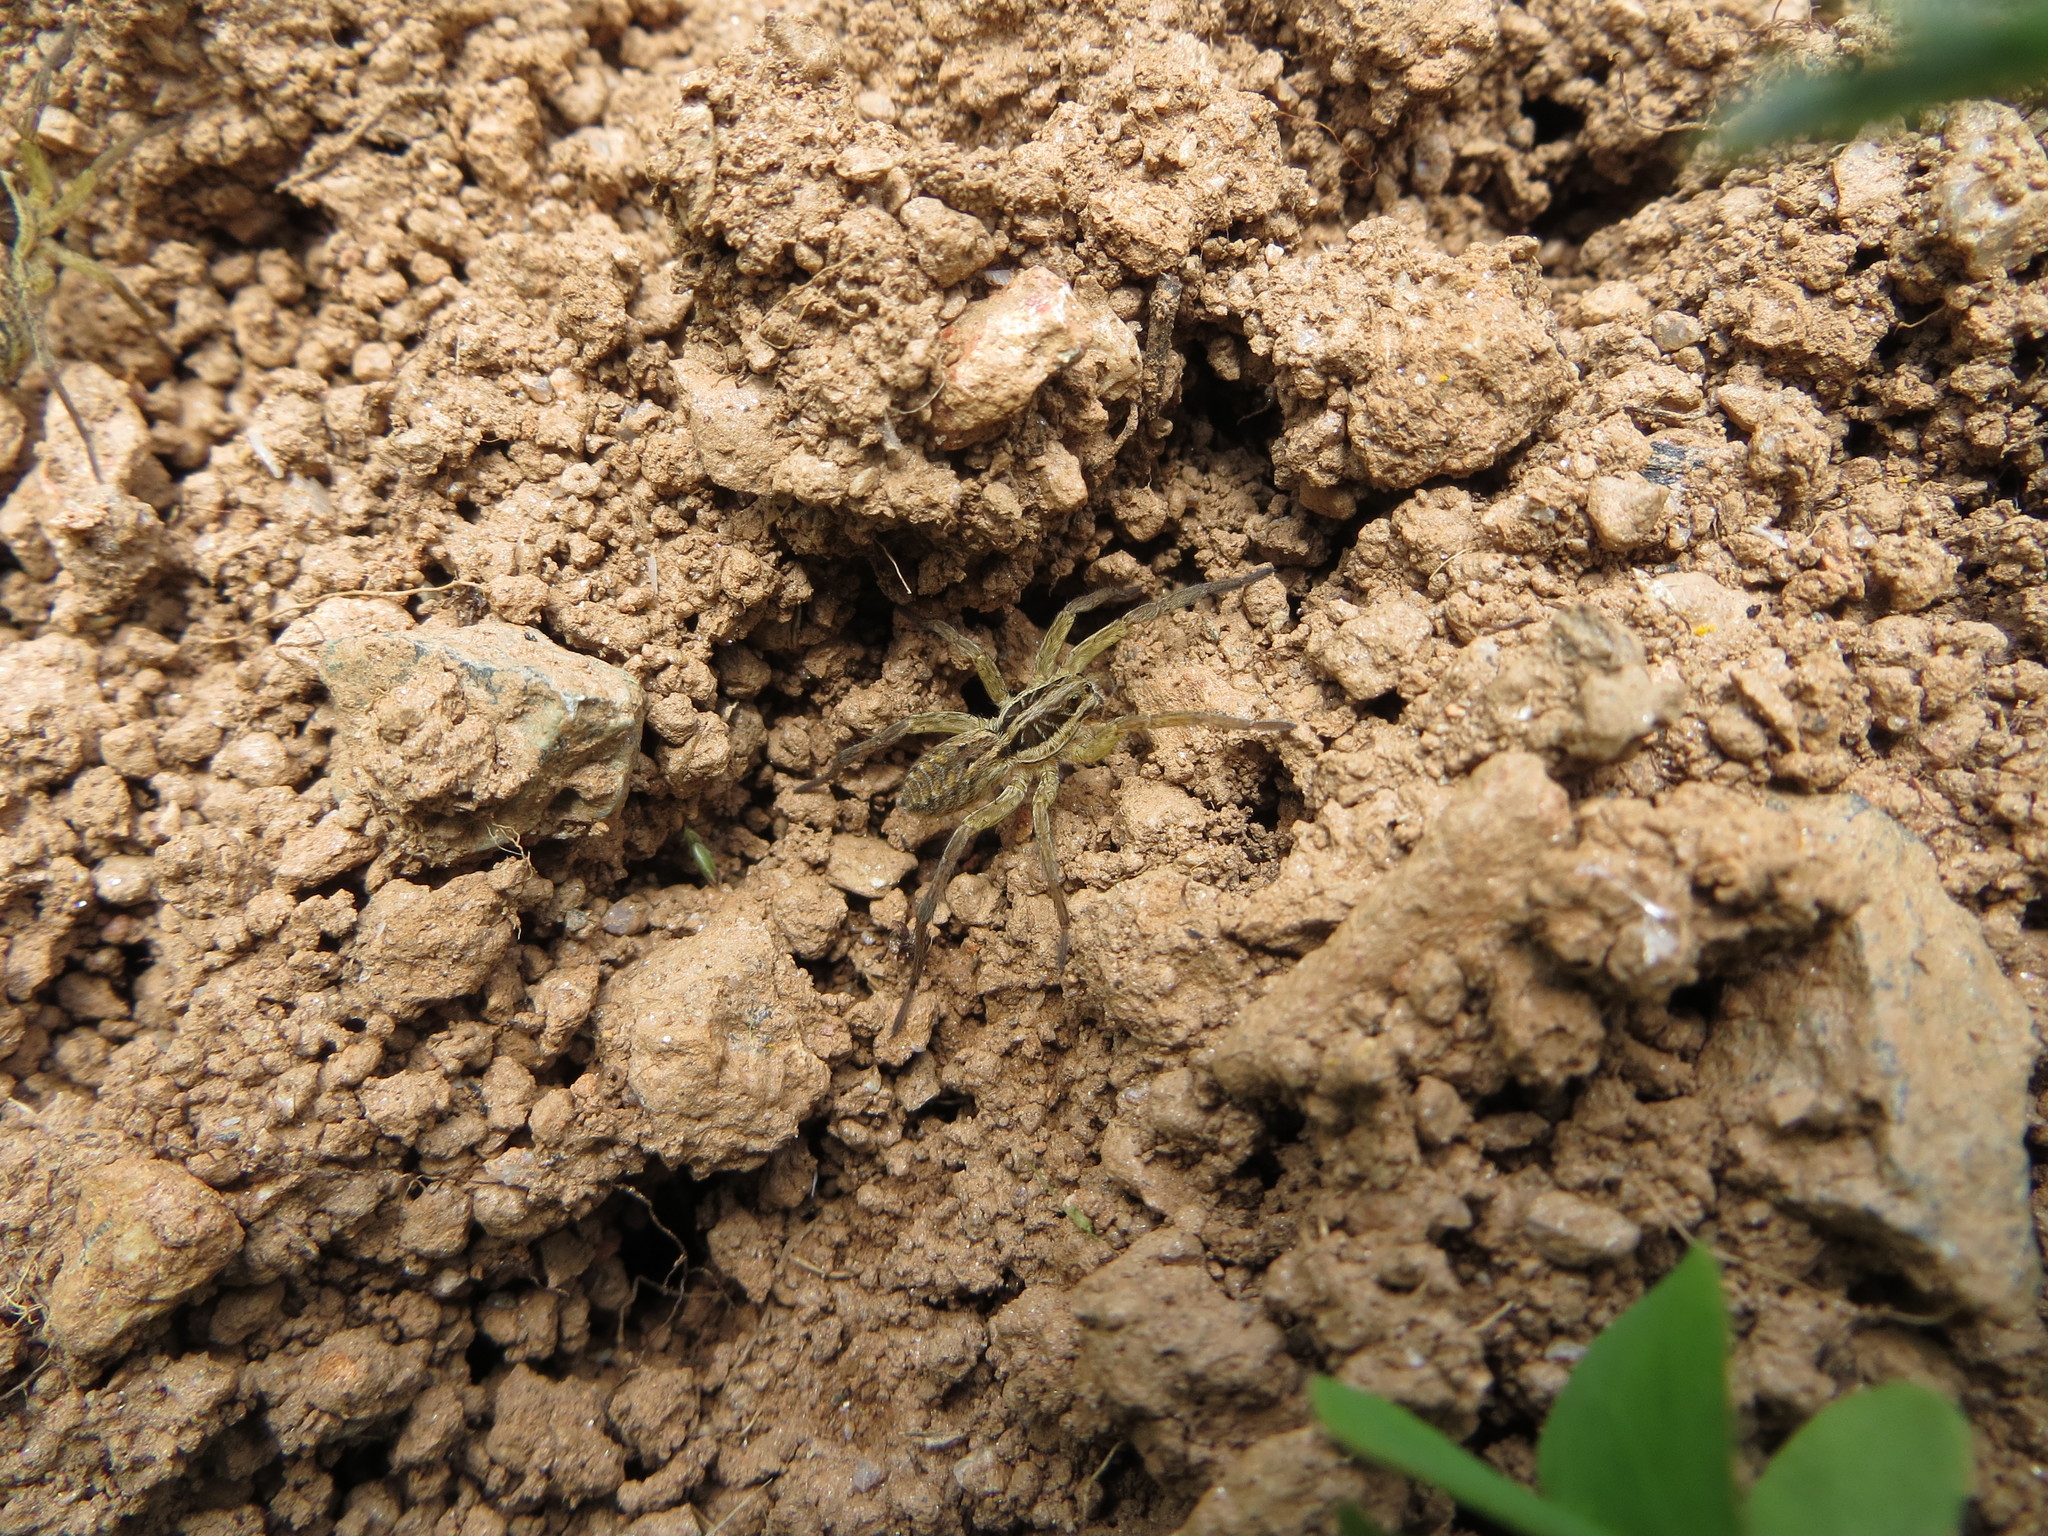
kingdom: Animalia
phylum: Arthropoda
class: Arachnida
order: Araneae
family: Lycosidae
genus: Hogna
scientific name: Hogna radiata
